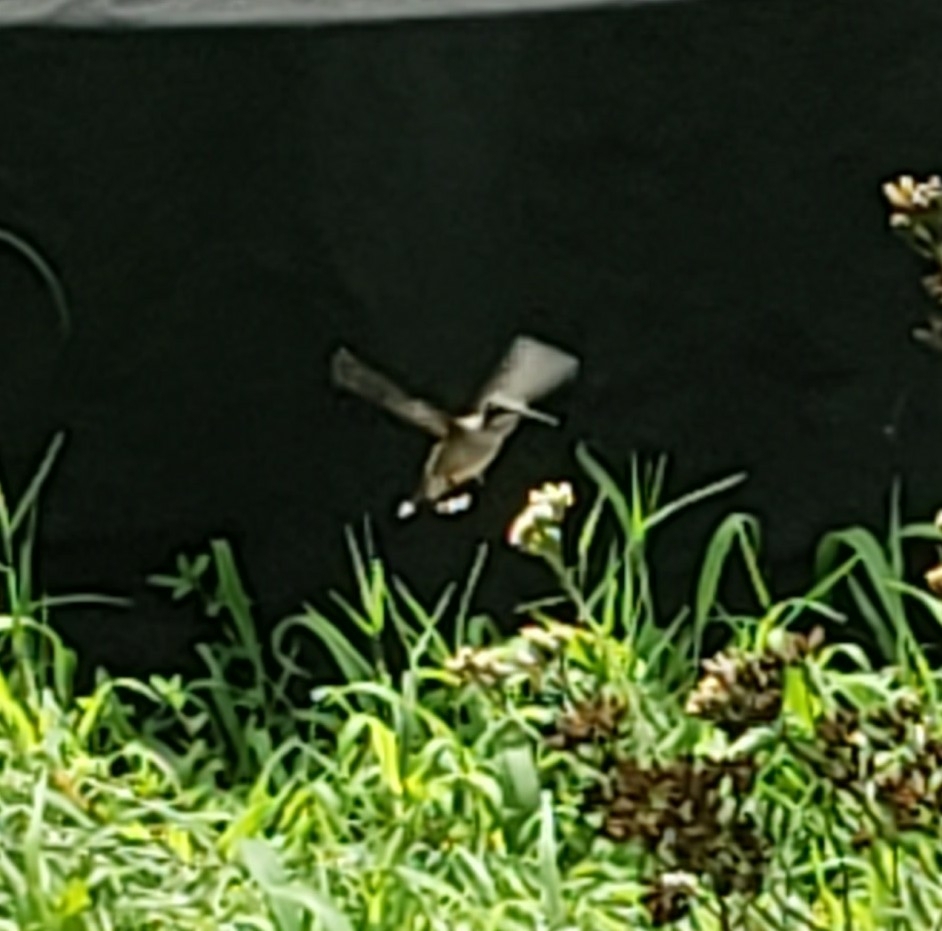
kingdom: Animalia
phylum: Chordata
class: Aves
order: Apodiformes
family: Trochilidae
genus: Archilochus
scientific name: Archilochus colubris
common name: Ruby-throated hummingbird
